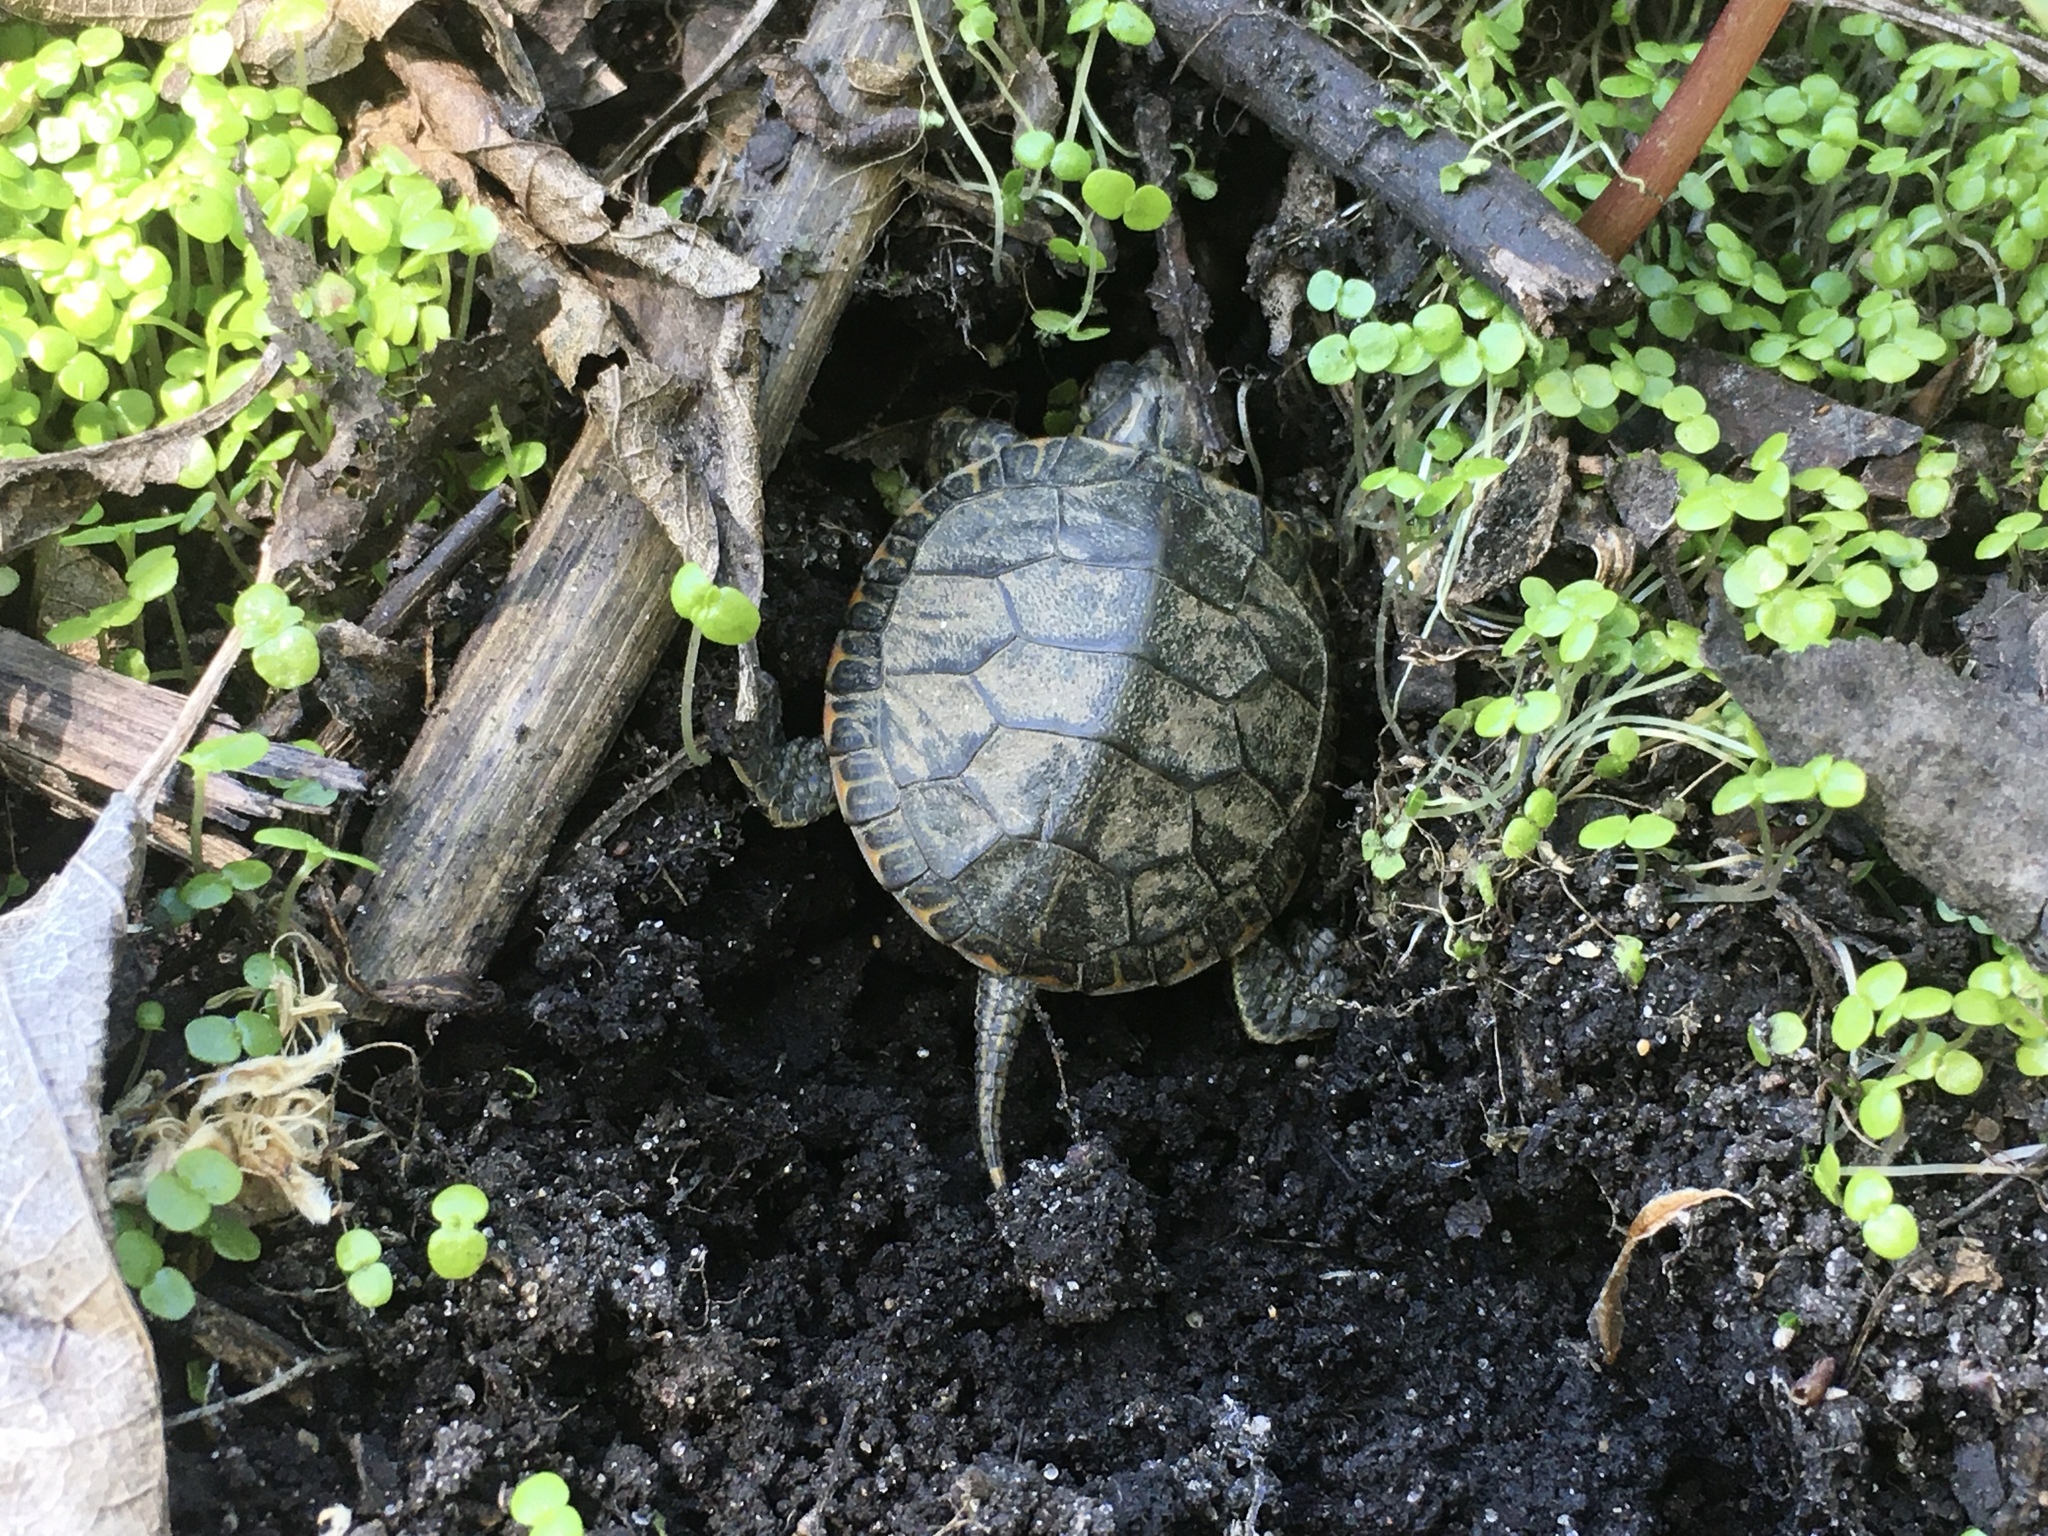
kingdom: Animalia
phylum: Chordata
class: Testudines
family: Emydidae
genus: Chrysemys
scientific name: Chrysemys picta
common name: Painted turtle
